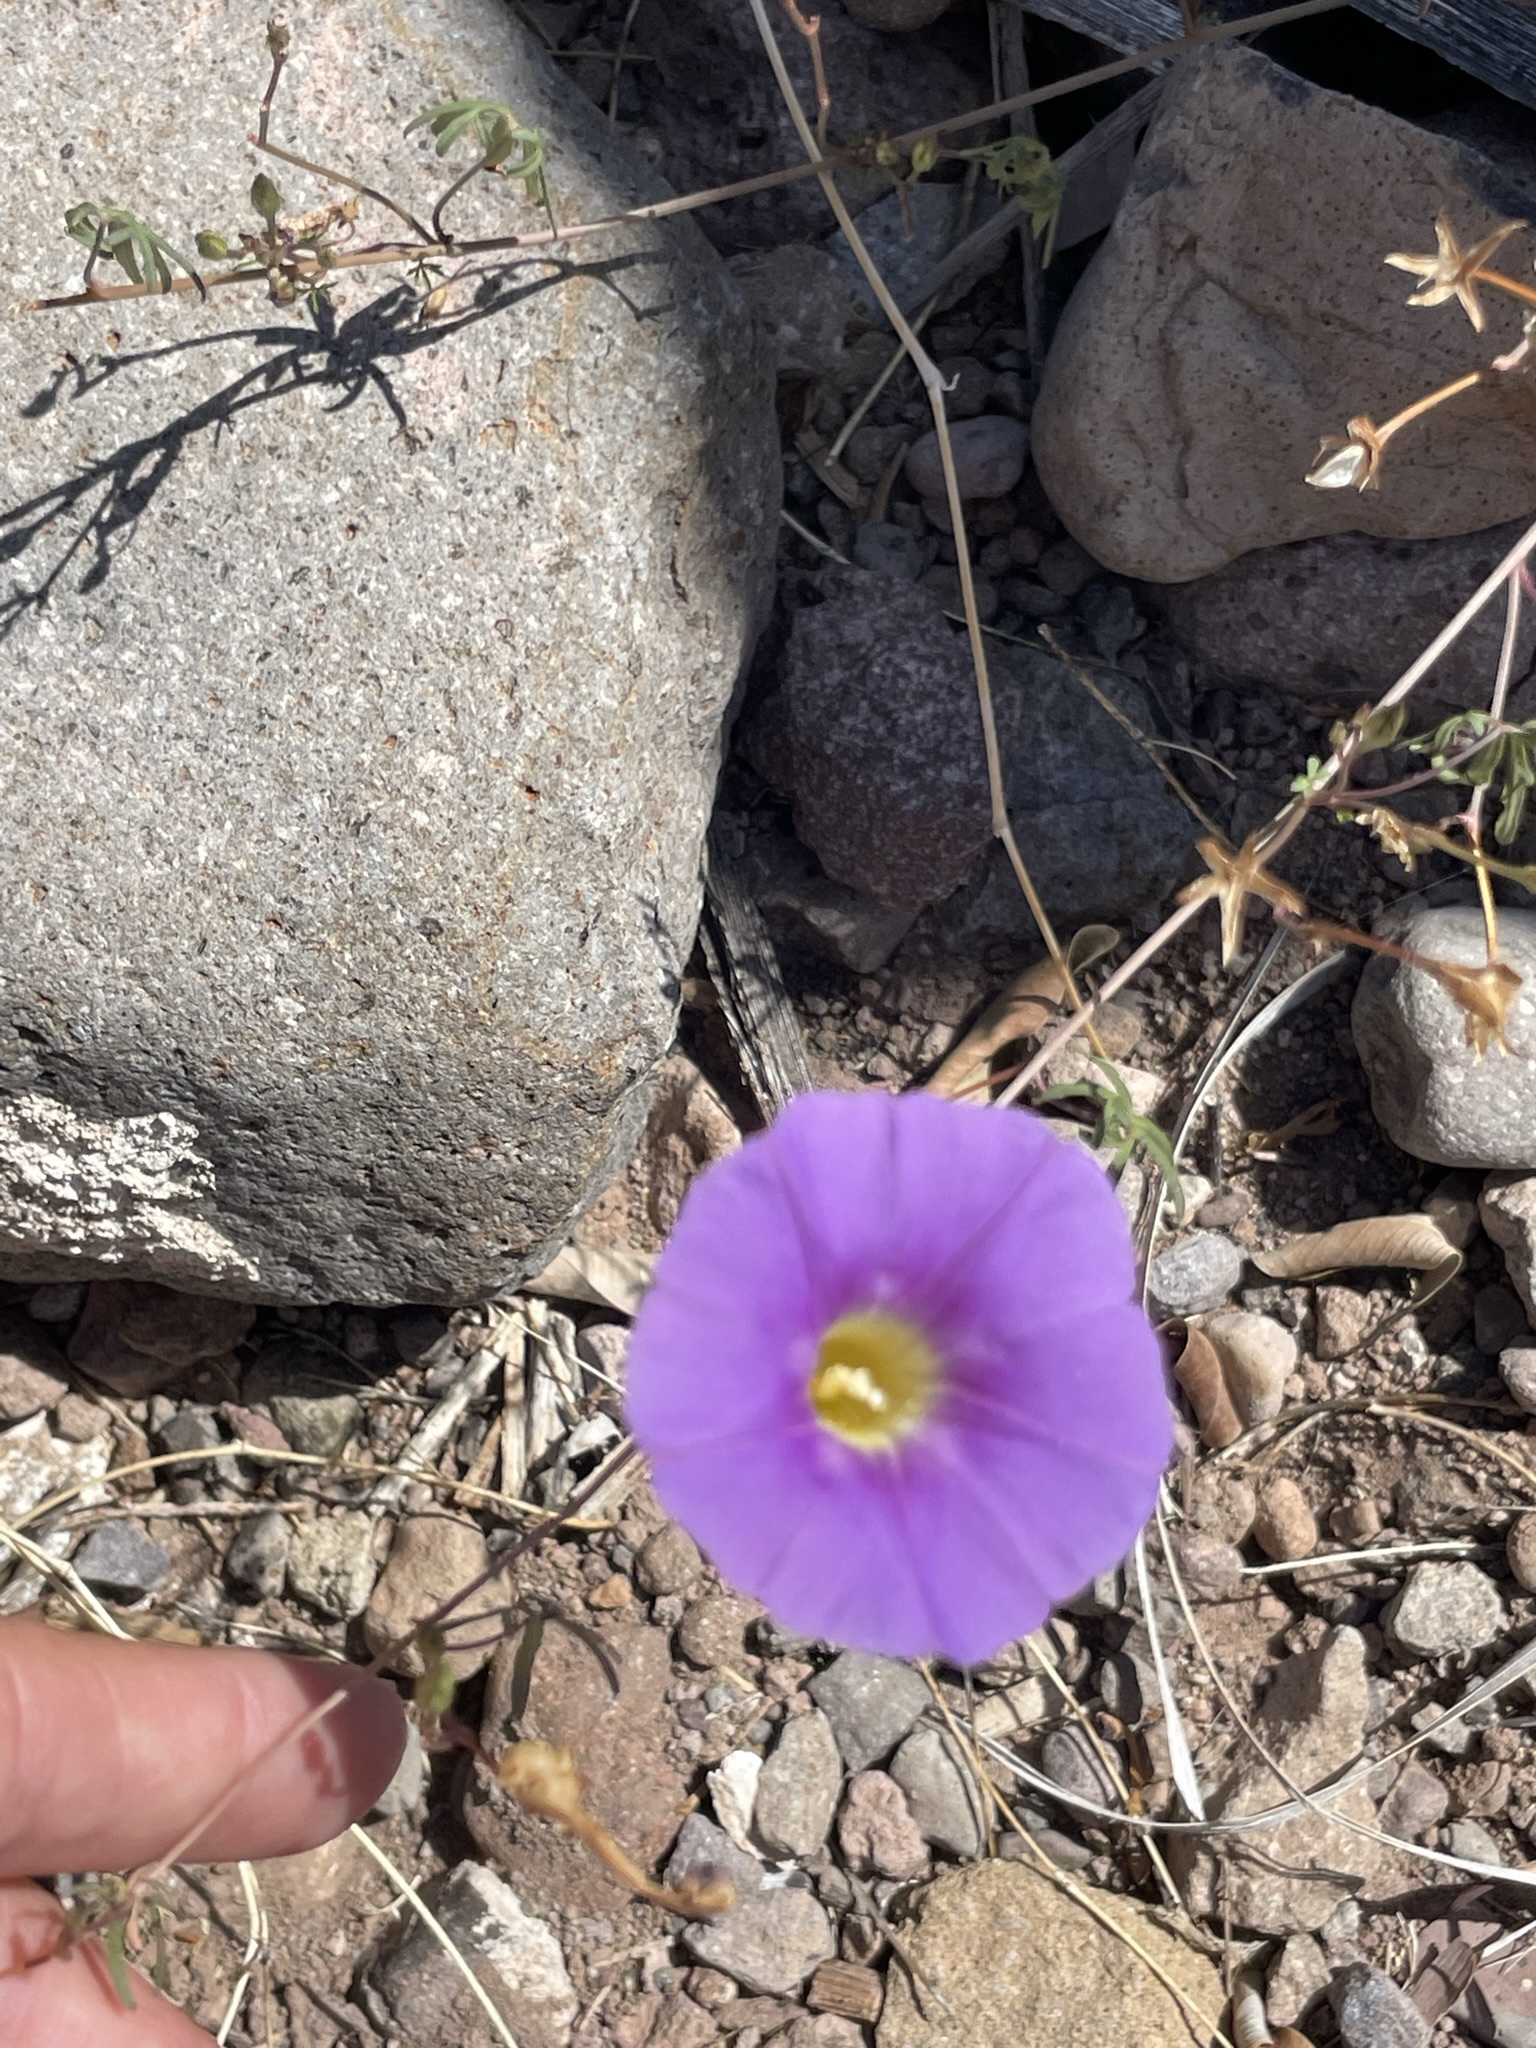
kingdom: Plantae
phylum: Tracheophyta
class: Magnoliopsida
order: Solanales
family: Convolvulaceae
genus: Ipomoea
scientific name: Ipomoea ternifolia
